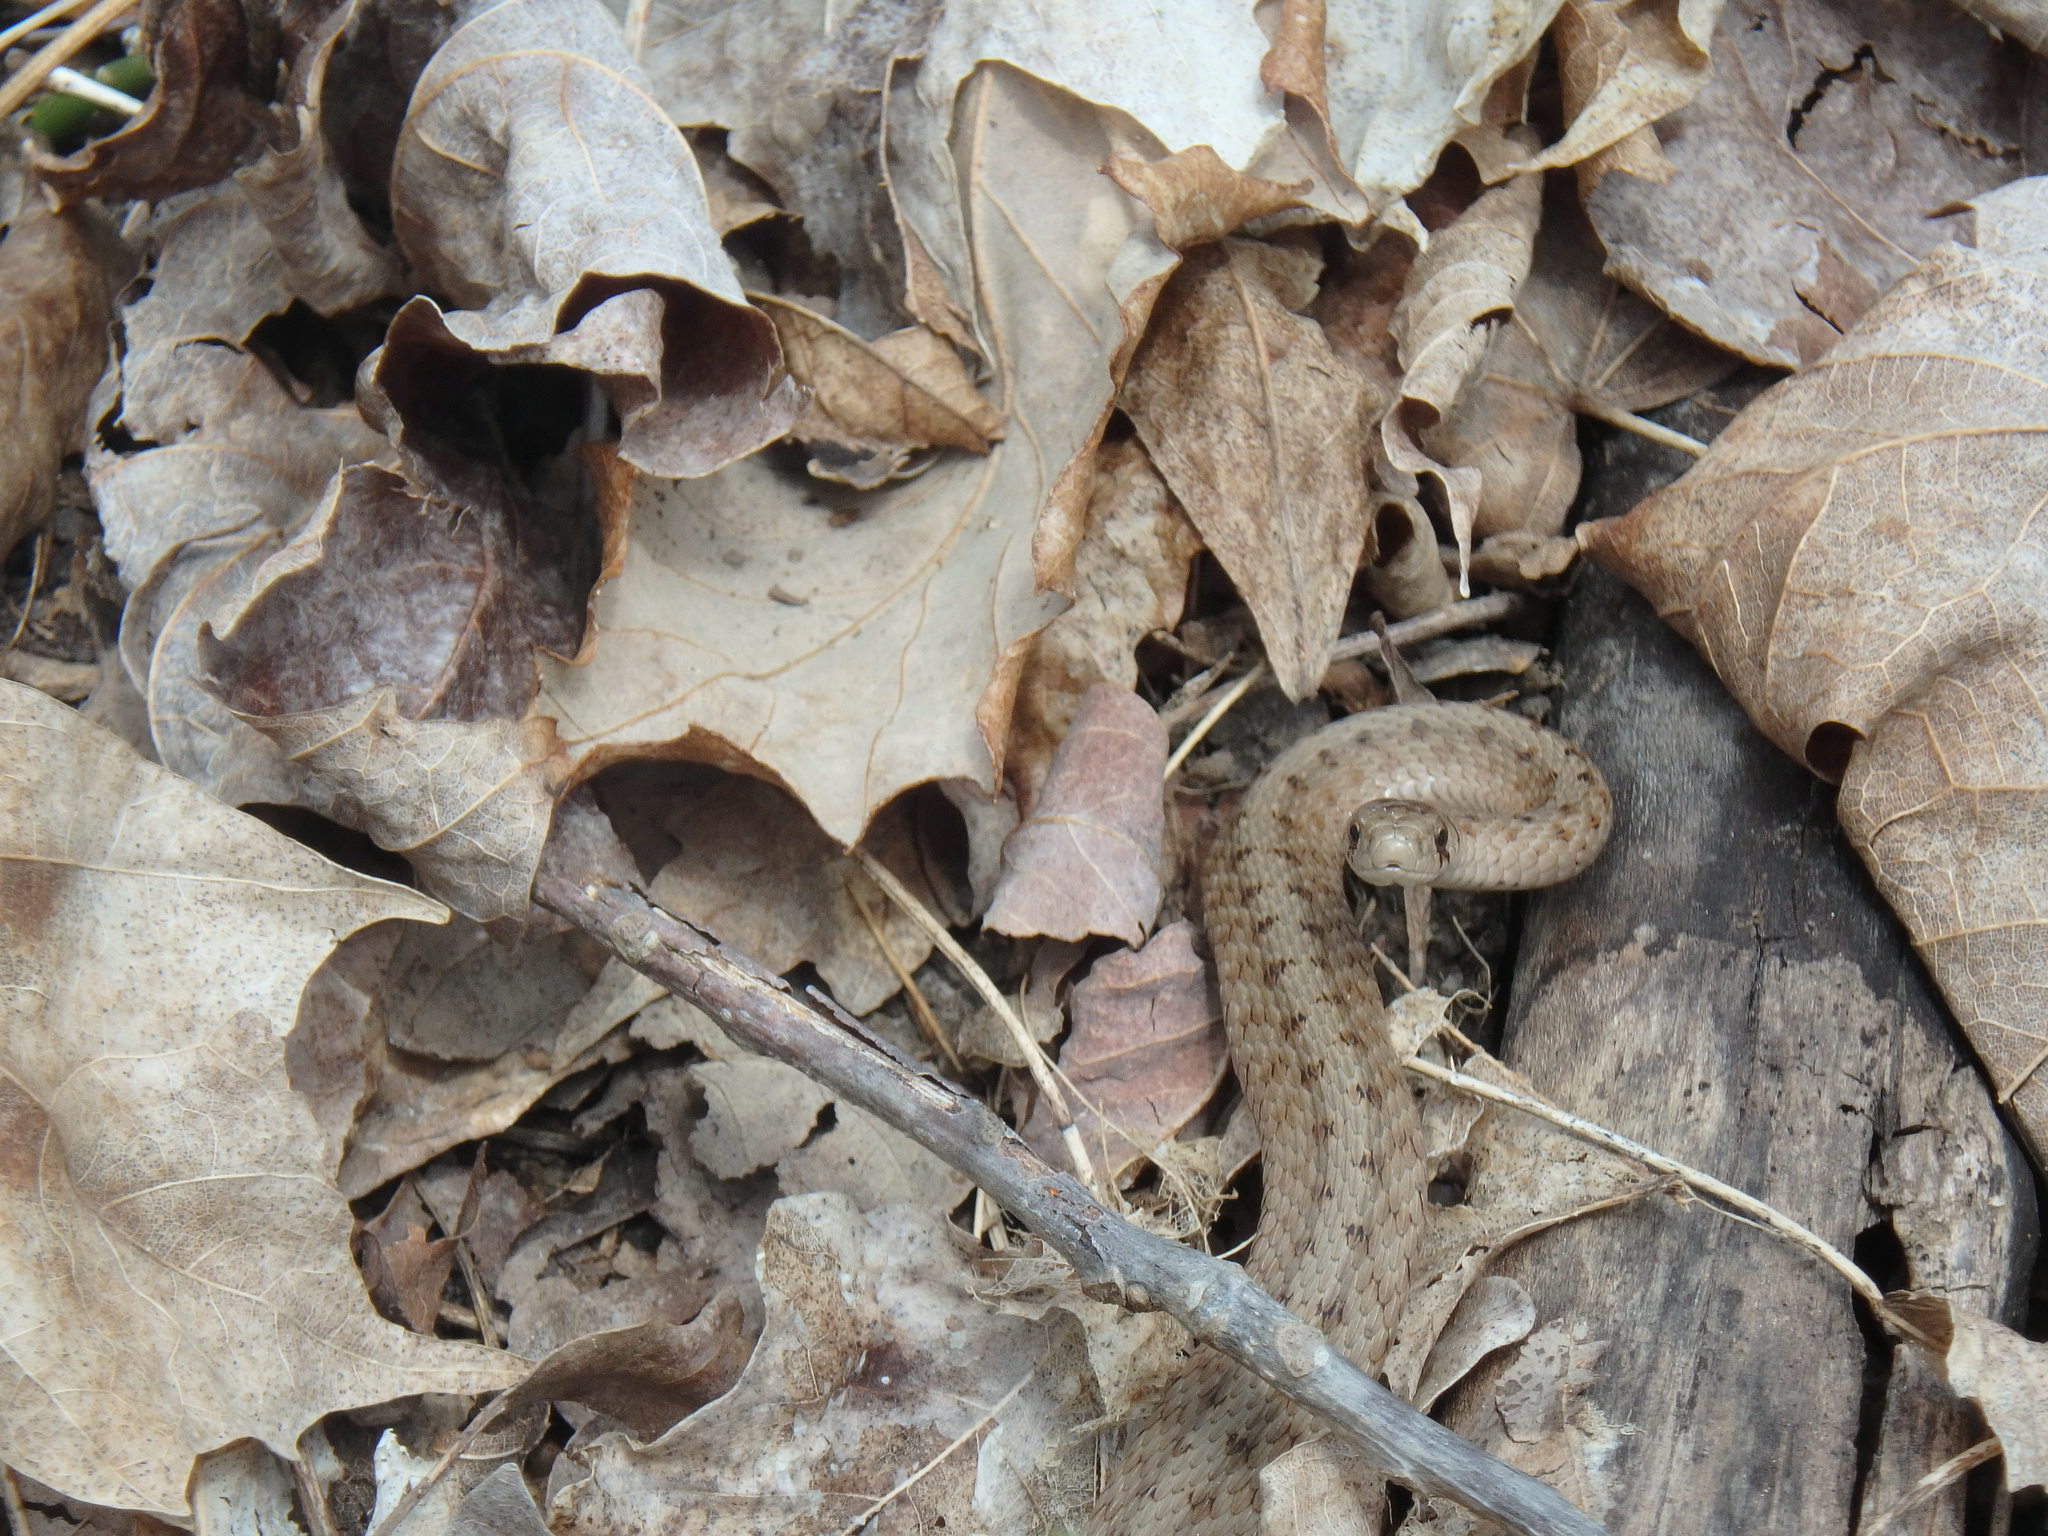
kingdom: Animalia
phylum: Chordata
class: Squamata
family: Colubridae
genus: Storeria
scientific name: Storeria dekayi
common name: (dekay’s) brown snake
